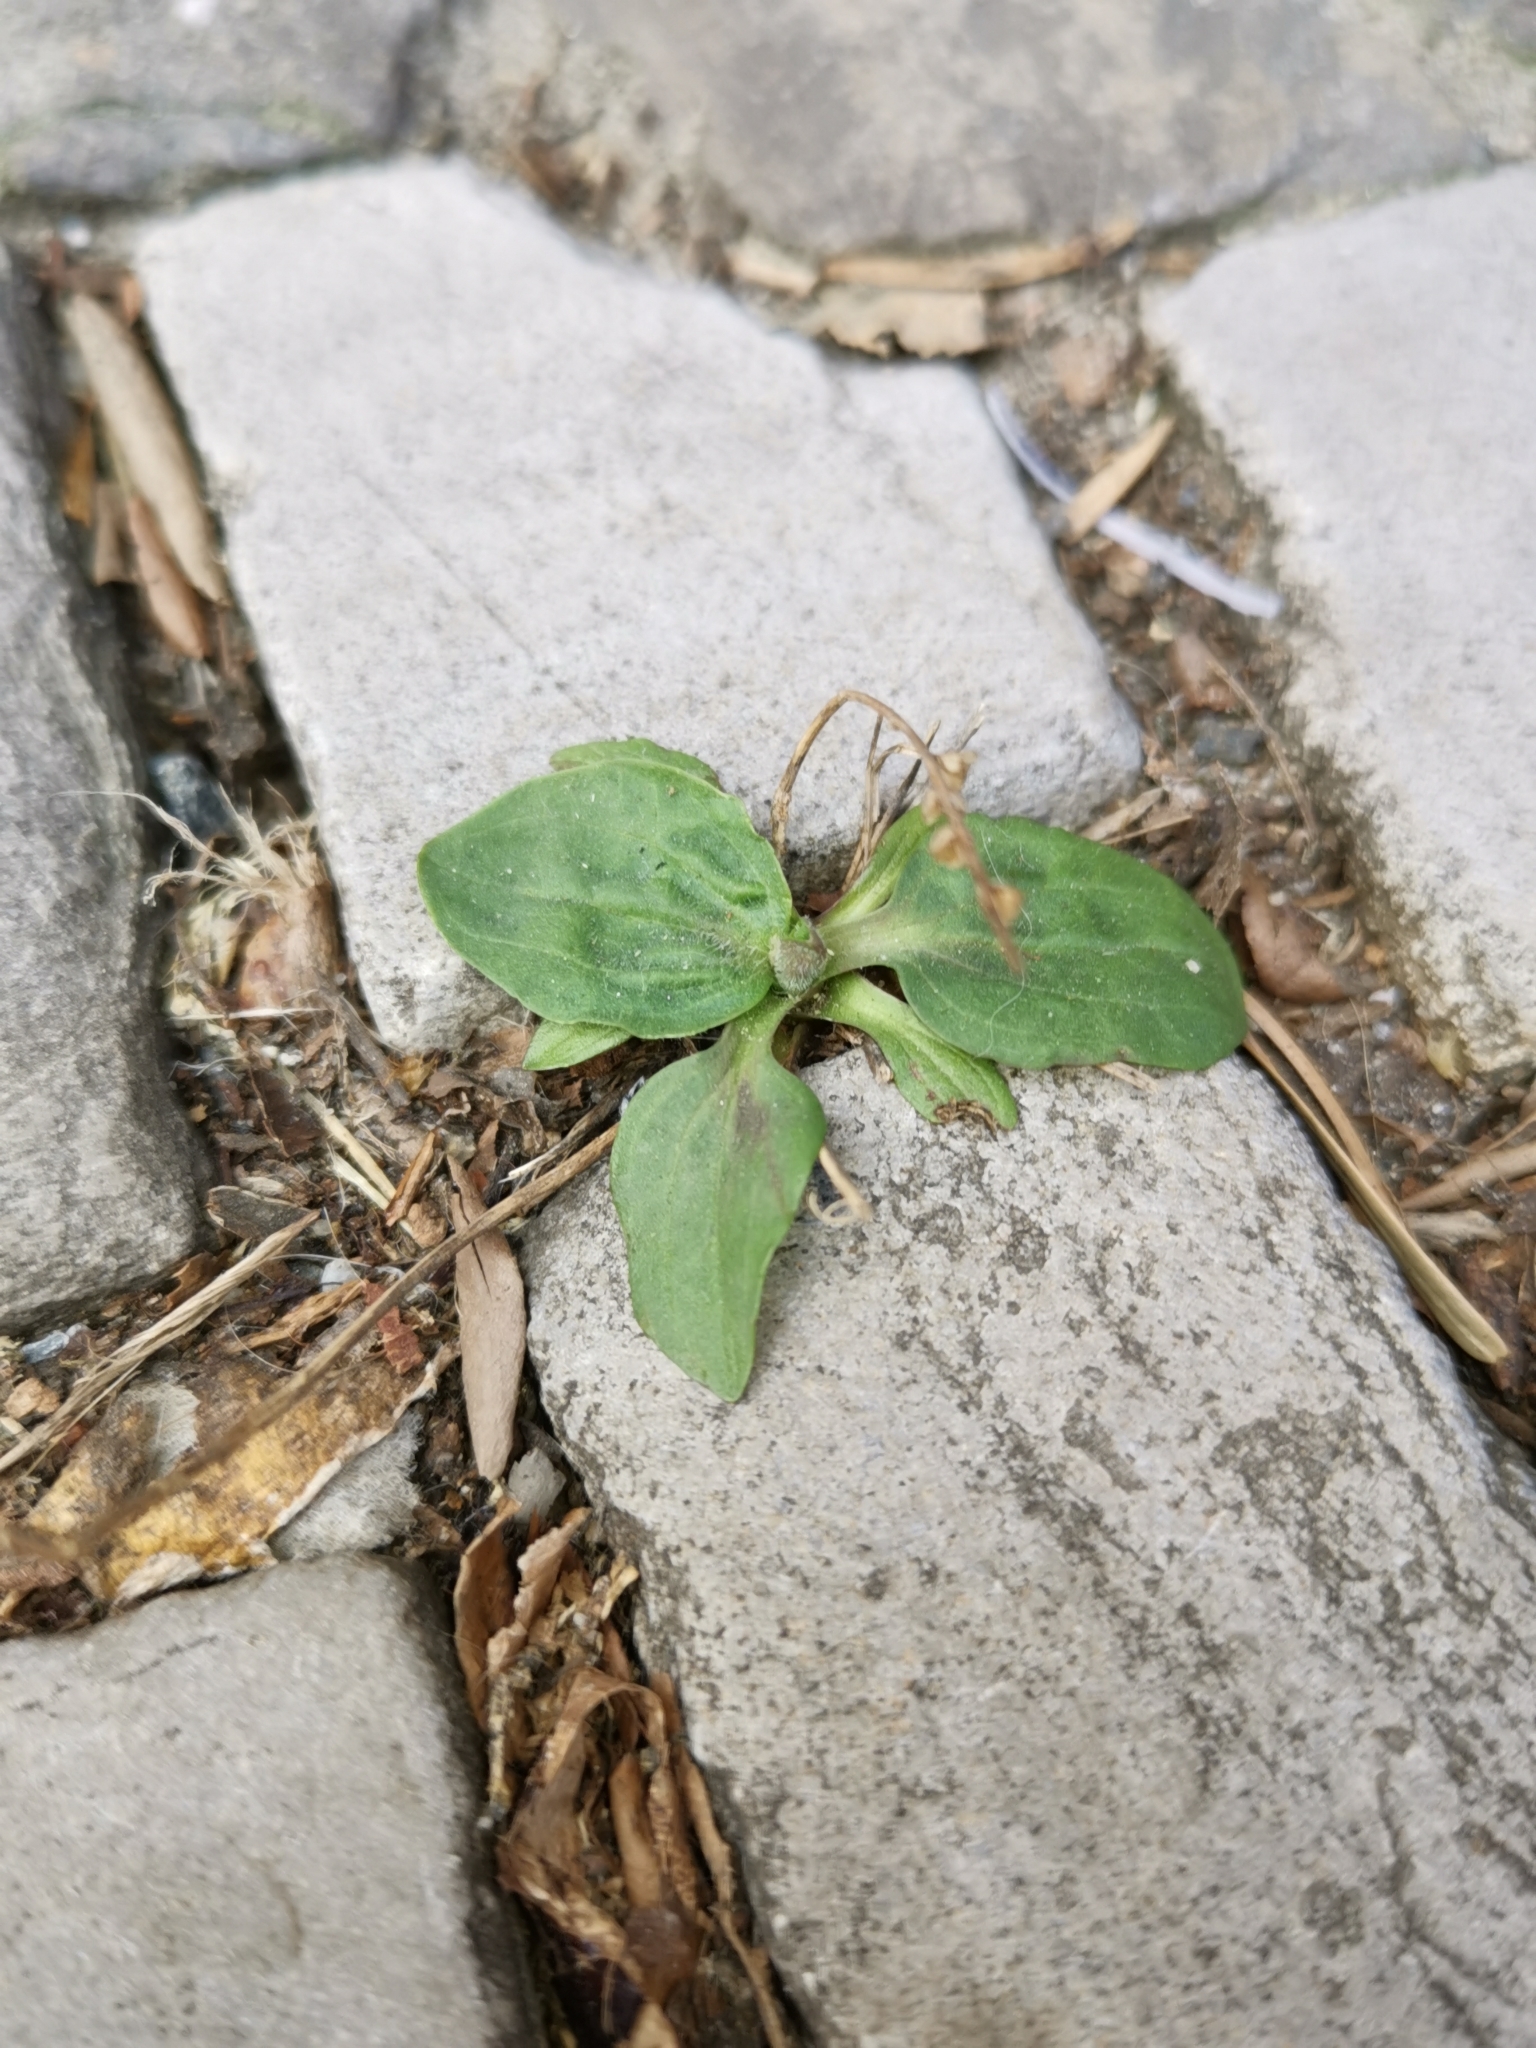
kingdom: Plantae
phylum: Tracheophyta
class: Magnoliopsida
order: Lamiales
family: Plantaginaceae
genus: Plantago
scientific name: Plantago major
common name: Common plantain
